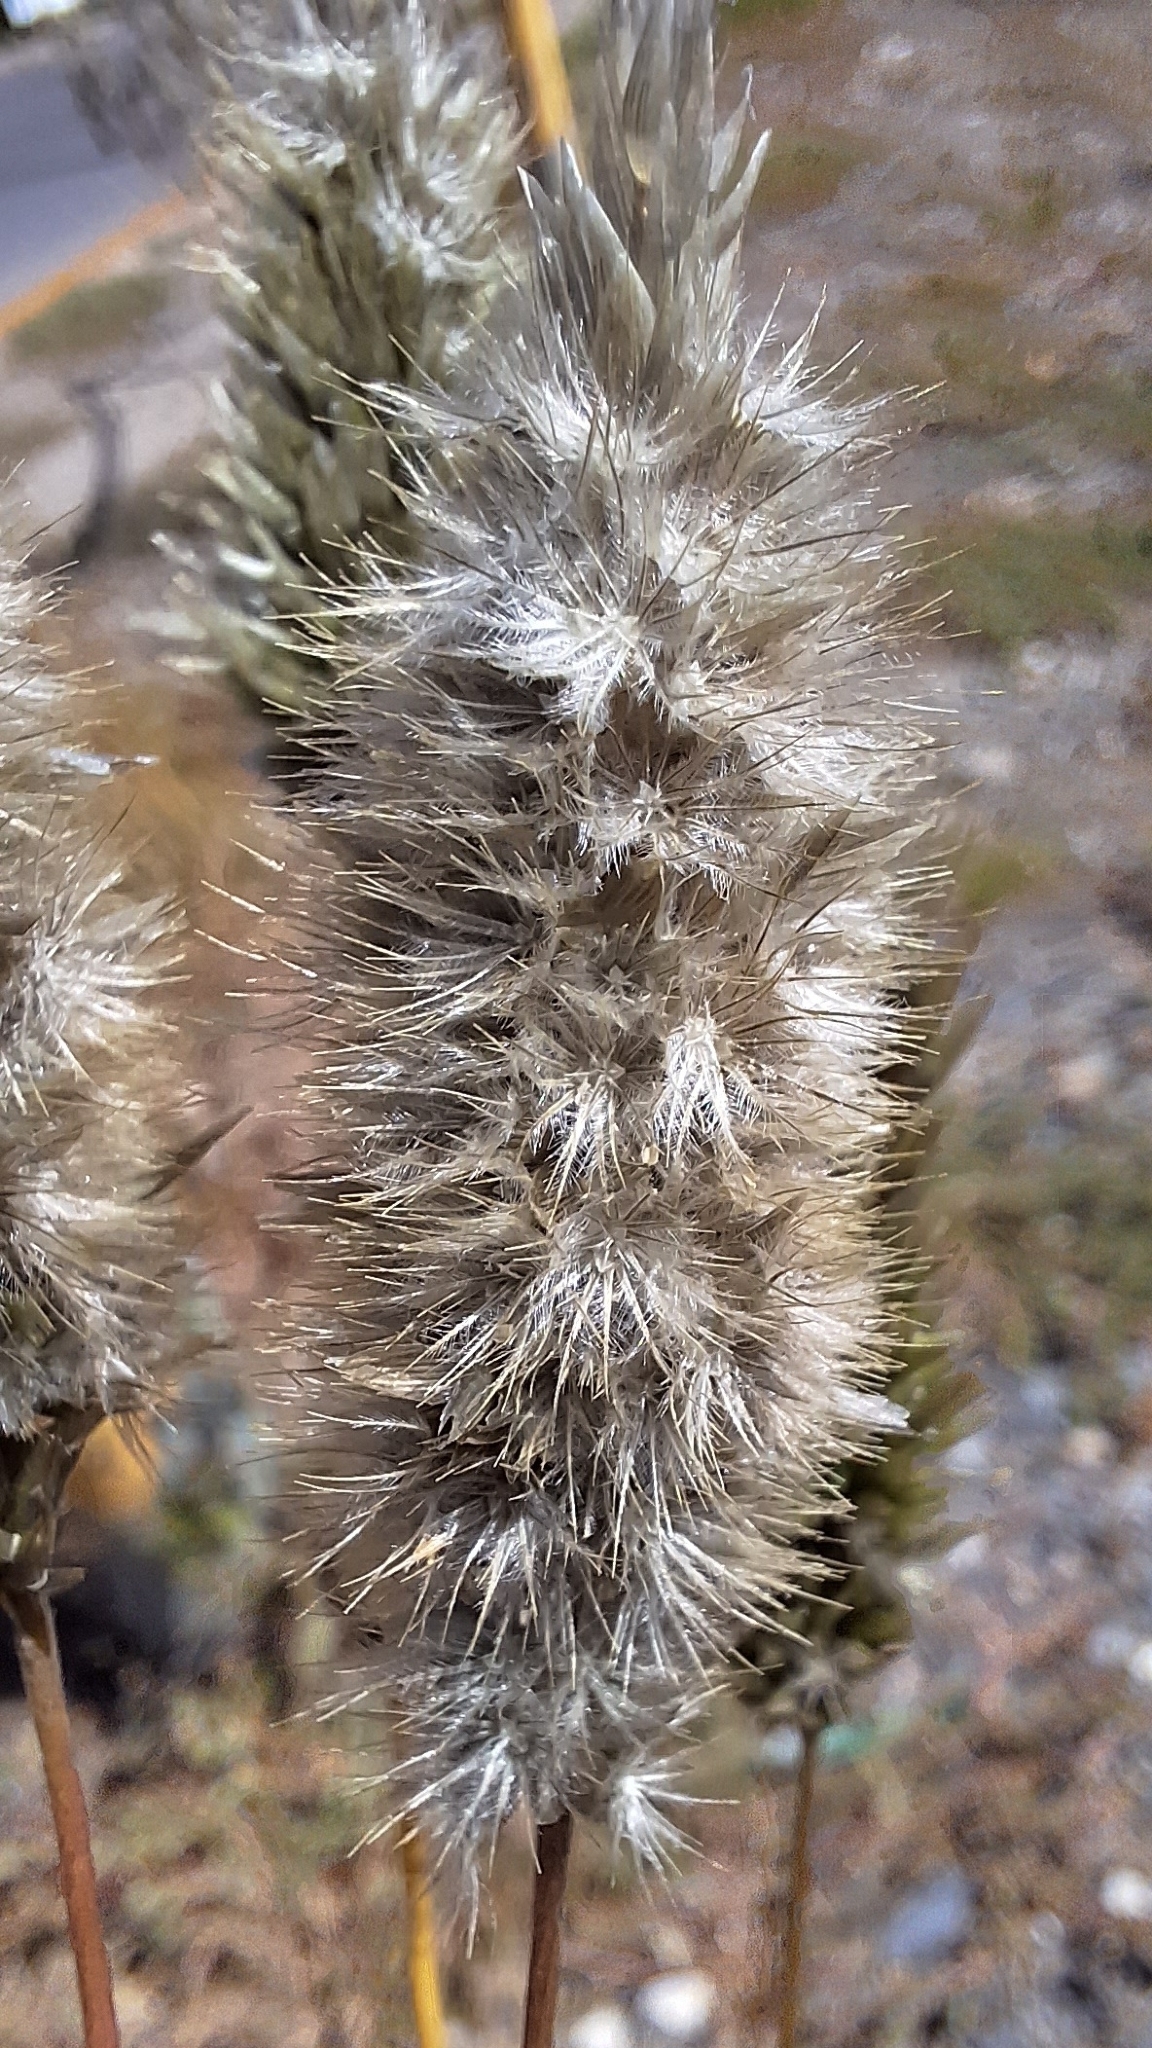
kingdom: Plantae
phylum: Tracheophyta
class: Liliopsida
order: Poales
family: Poaceae
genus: Enneapogon
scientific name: Enneapogon nigricans
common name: Pappus grass
